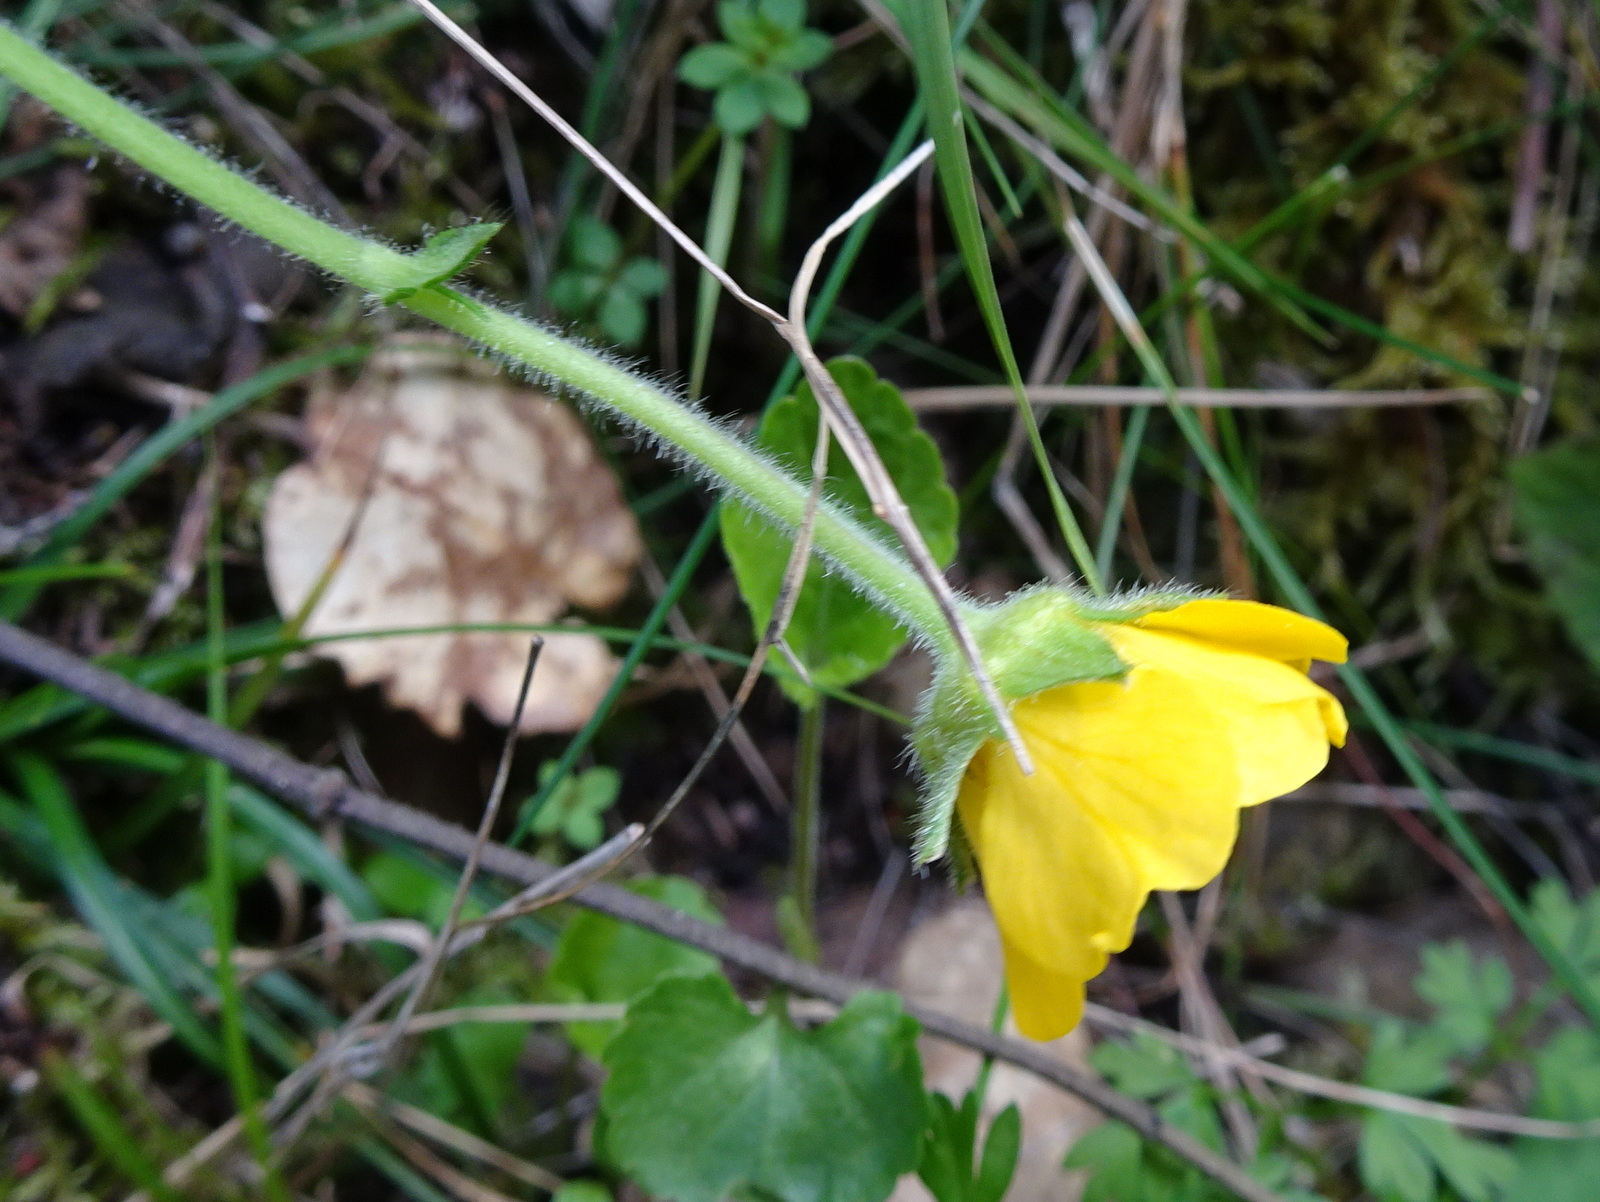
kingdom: Plantae
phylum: Tracheophyta
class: Magnoliopsida
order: Rosales
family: Rosaceae
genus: Geum
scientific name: Geum sylvaticum
